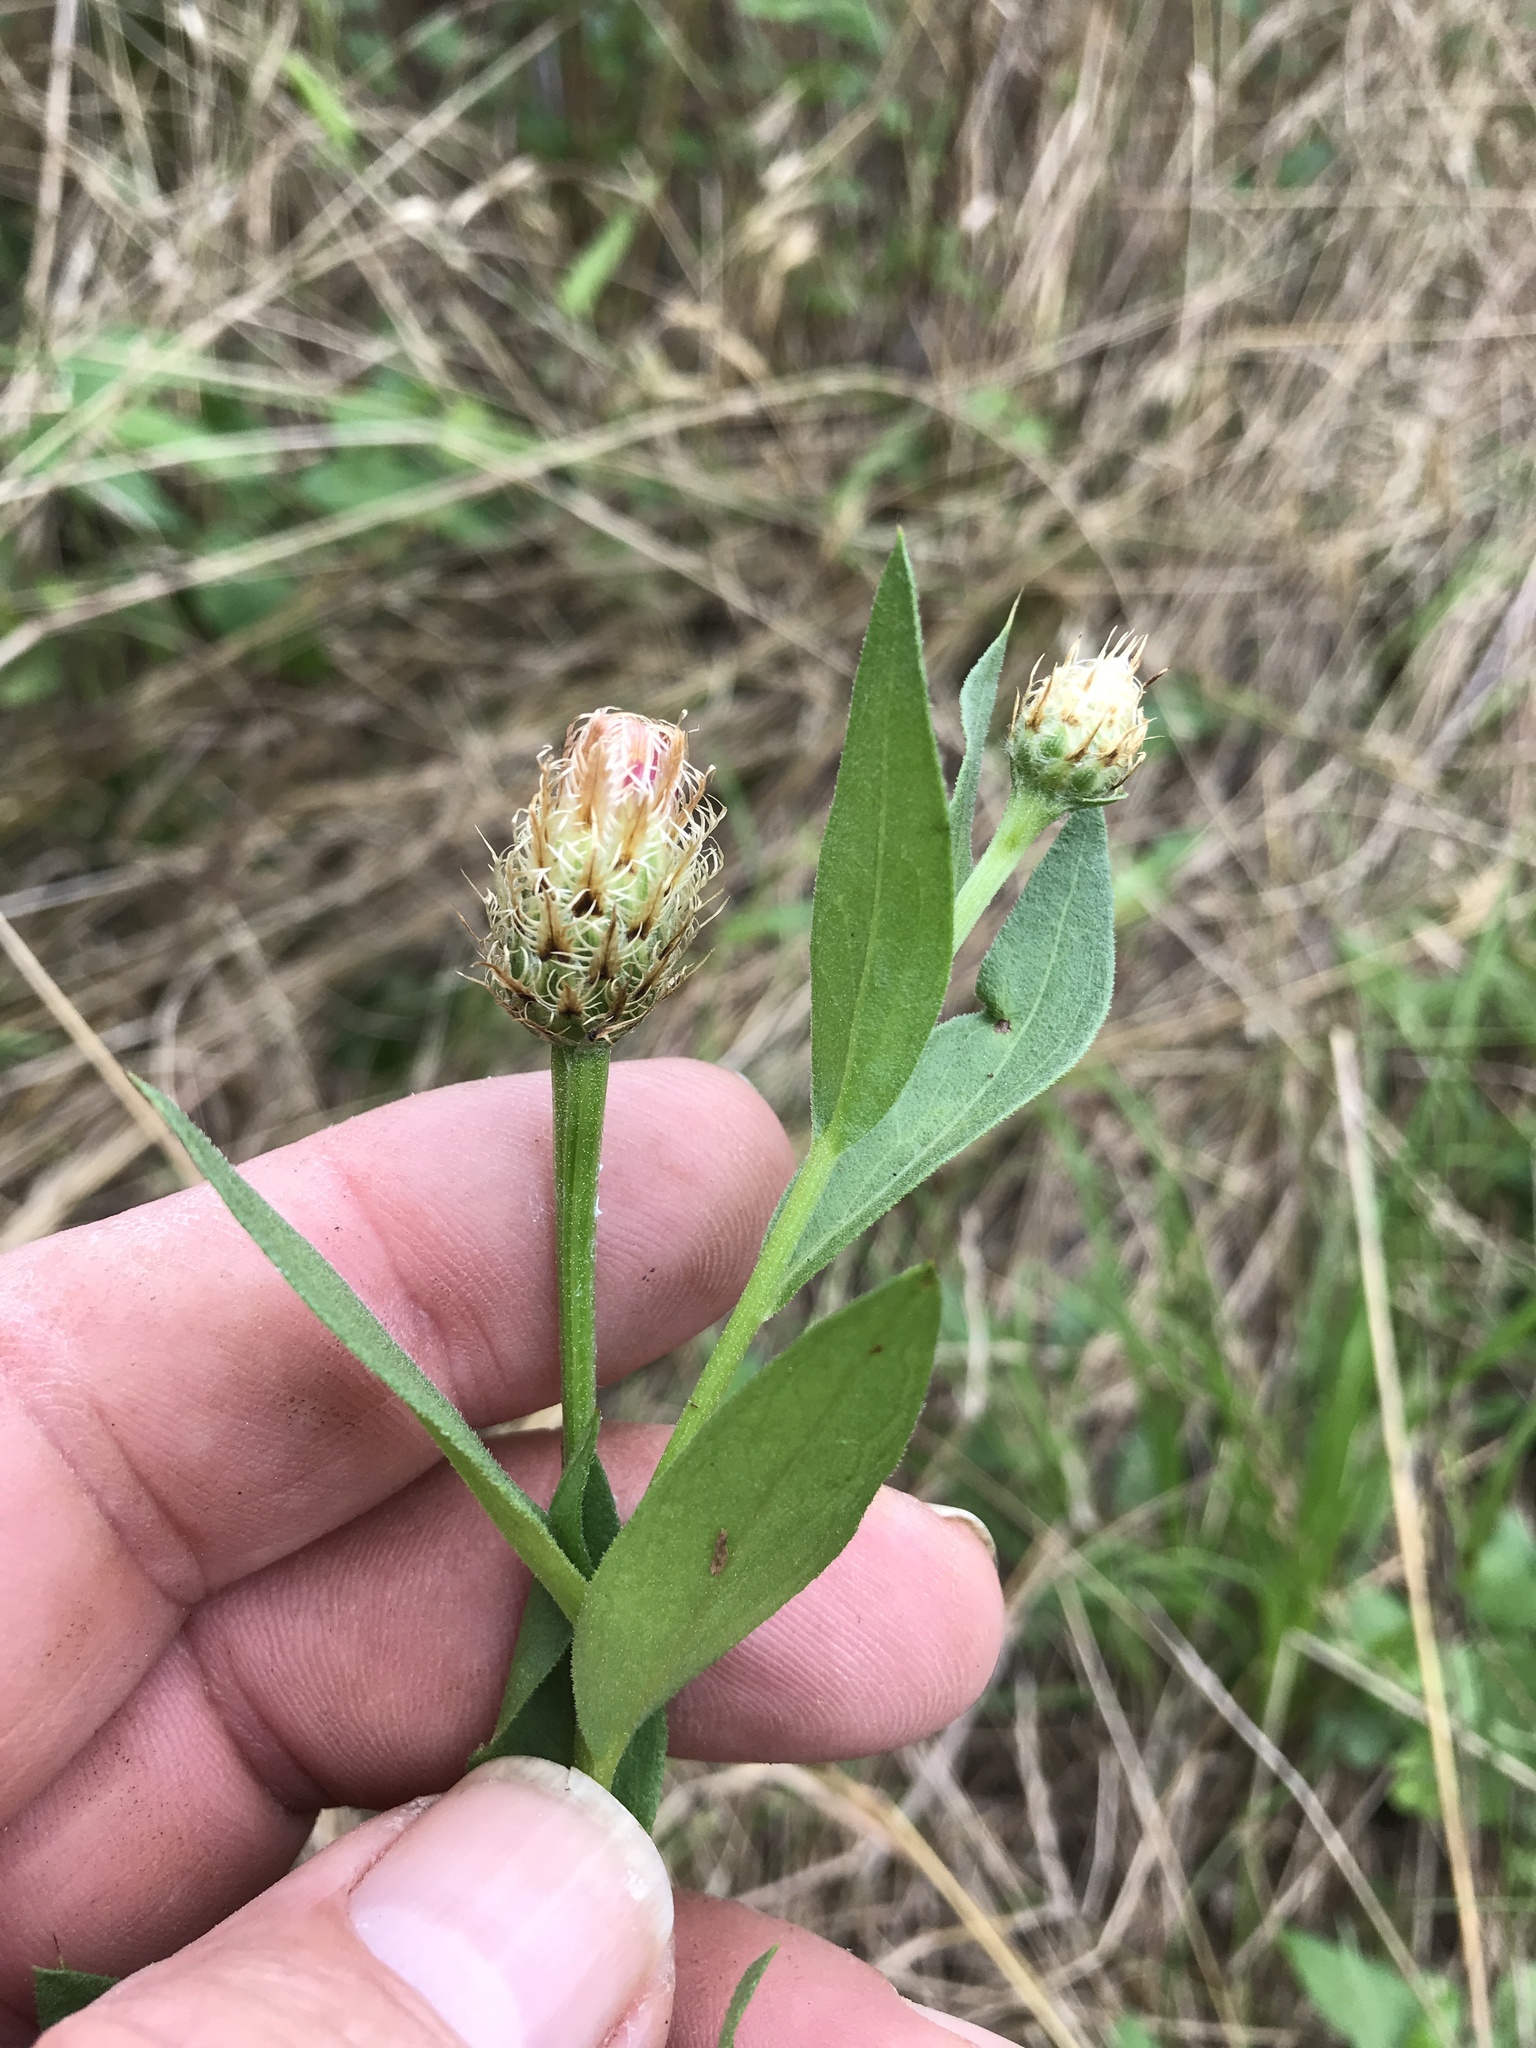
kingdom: Plantae
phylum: Tracheophyta
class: Magnoliopsida
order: Asterales
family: Asteraceae
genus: Plectocephalus
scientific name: Plectocephalus americanus
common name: American basket-flower
